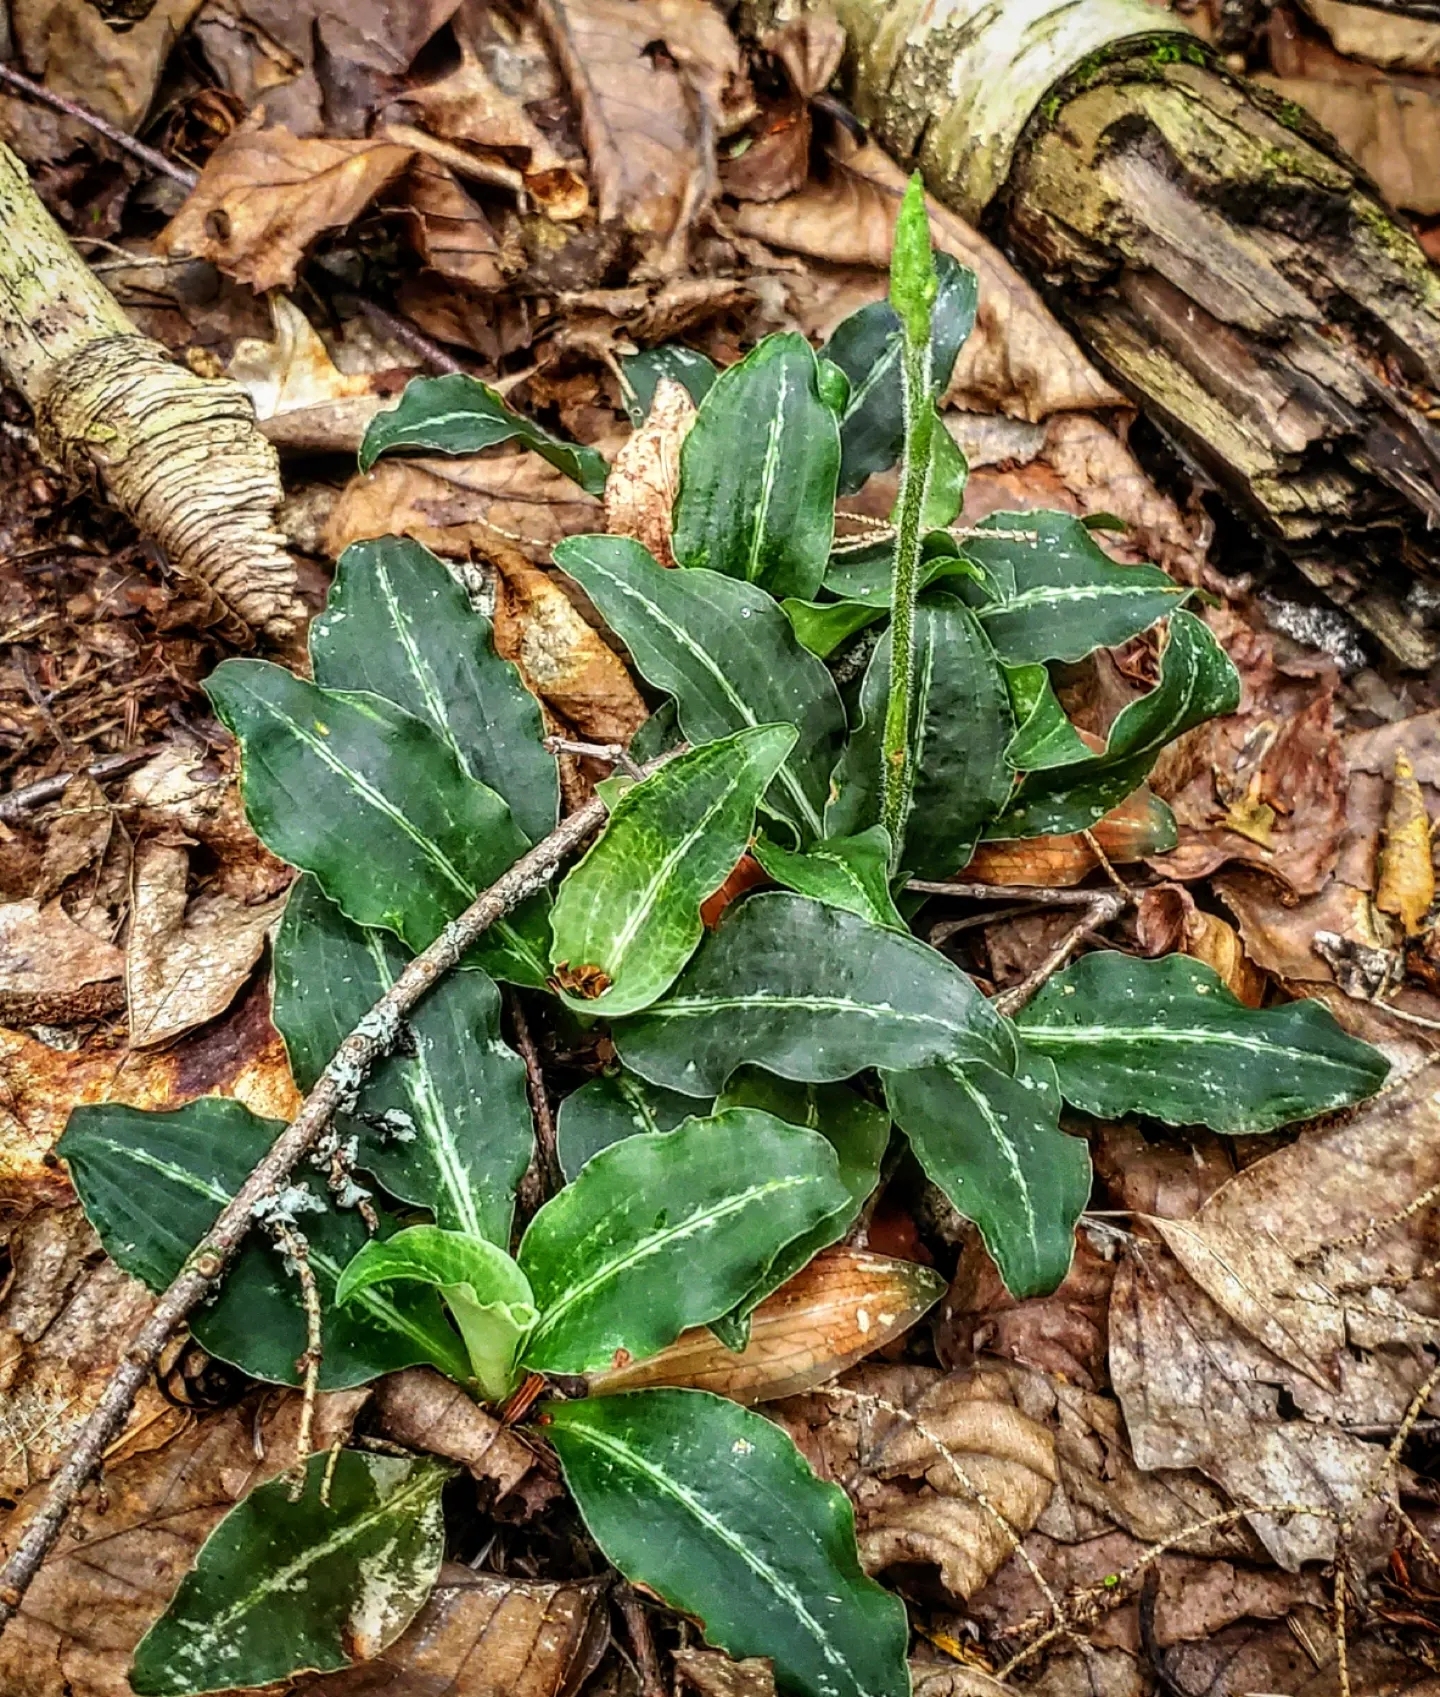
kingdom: Plantae
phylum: Tracheophyta
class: Liliopsida
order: Asparagales
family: Orchidaceae
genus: Goodyera
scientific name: Goodyera oblongifolia
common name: Giant rattlesnake-plantain
